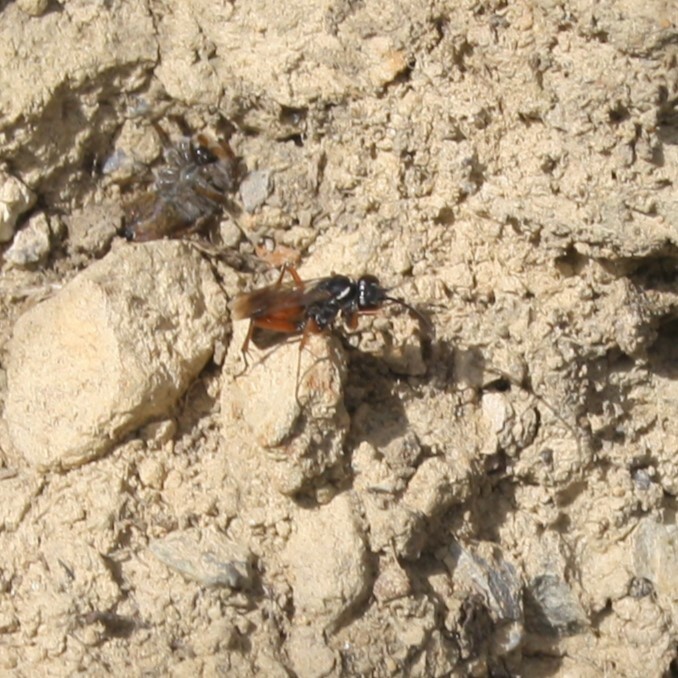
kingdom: Animalia
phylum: Arthropoda
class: Insecta
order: Hymenoptera
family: Pompilidae
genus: Agenioideus
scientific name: Agenioideus nubecula
